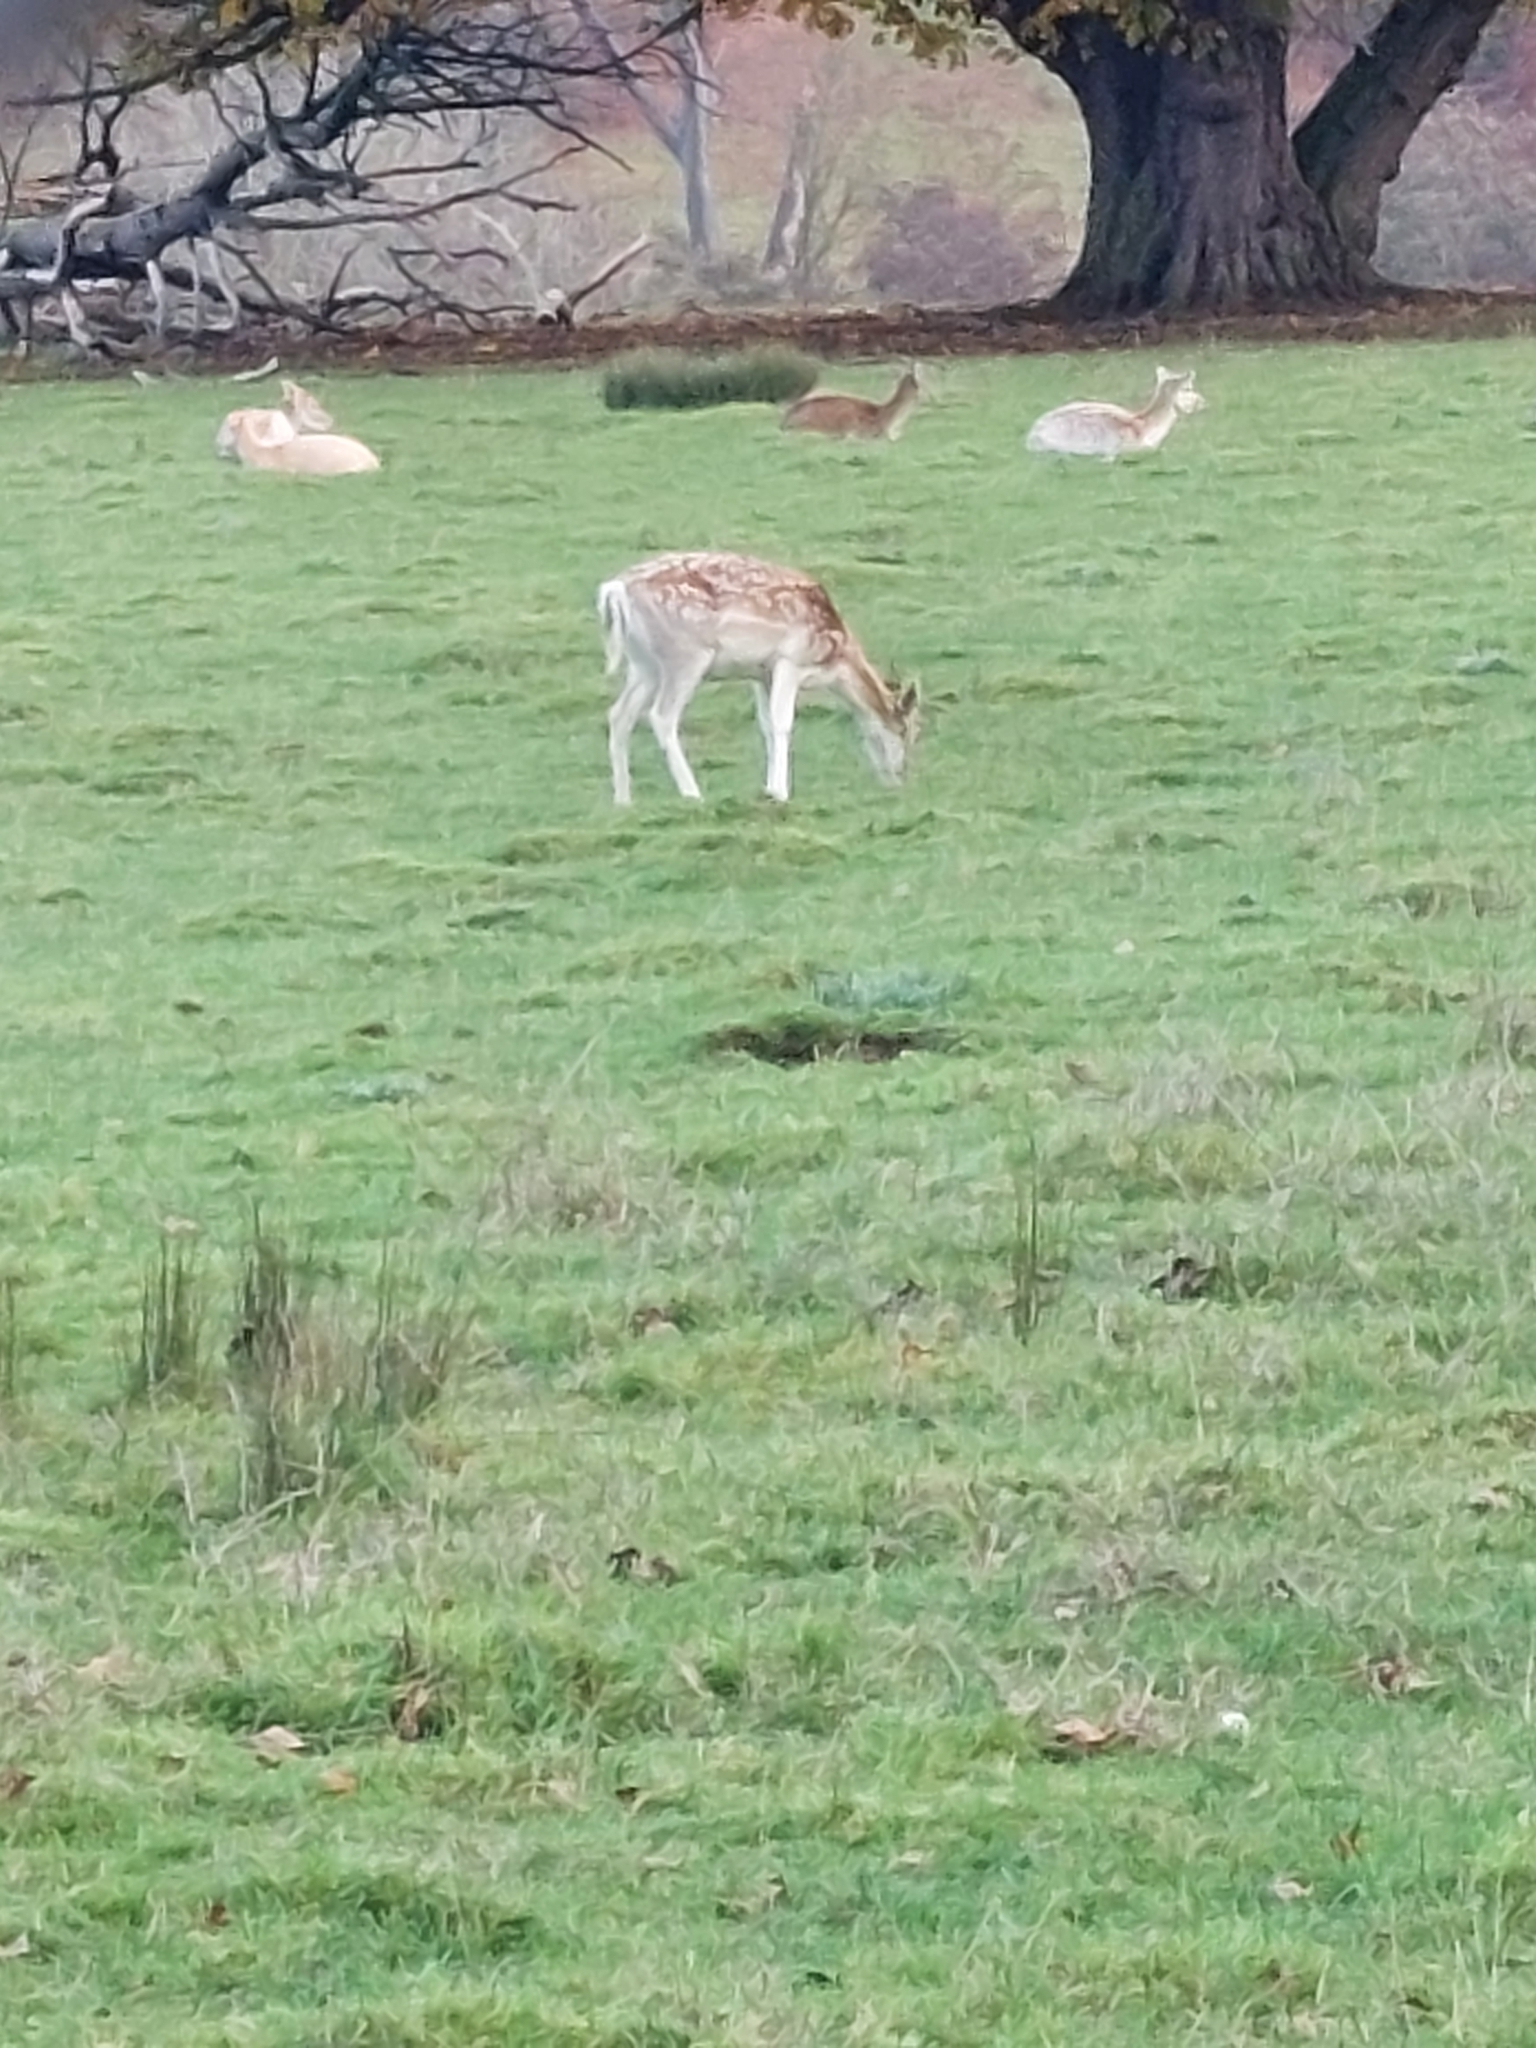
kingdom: Animalia
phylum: Chordata
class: Mammalia
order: Artiodactyla
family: Cervidae
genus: Dama
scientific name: Dama dama
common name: Fallow deer
